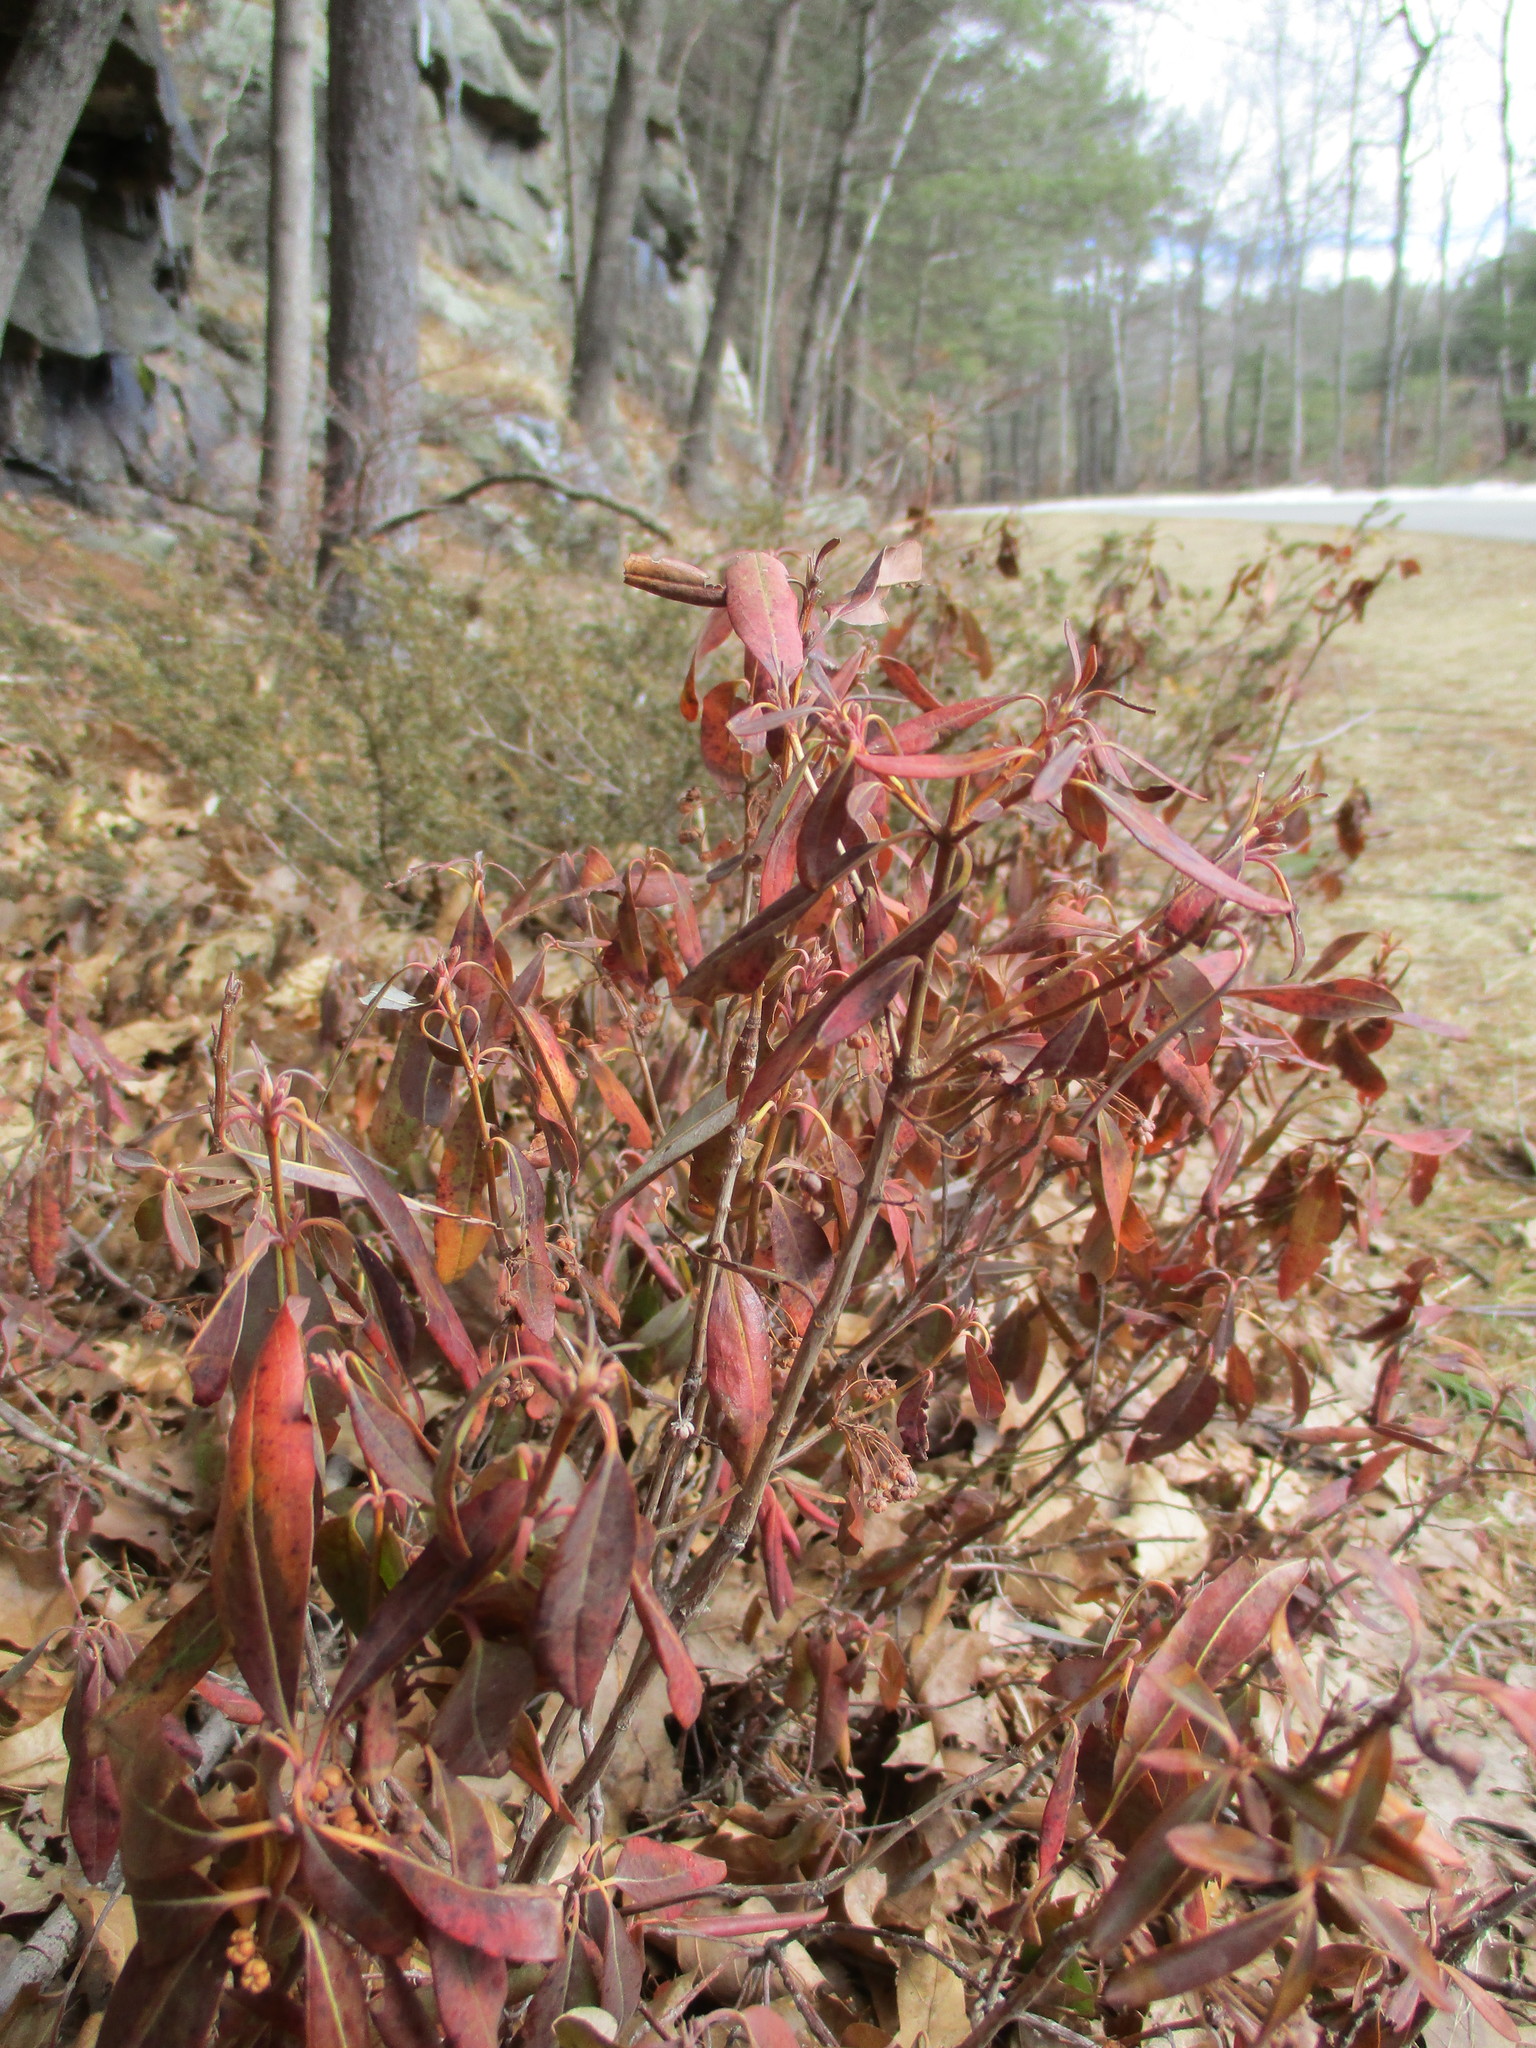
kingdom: Plantae
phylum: Tracheophyta
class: Magnoliopsida
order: Ericales
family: Ericaceae
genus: Kalmia
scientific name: Kalmia angustifolia
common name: Sheep-laurel
